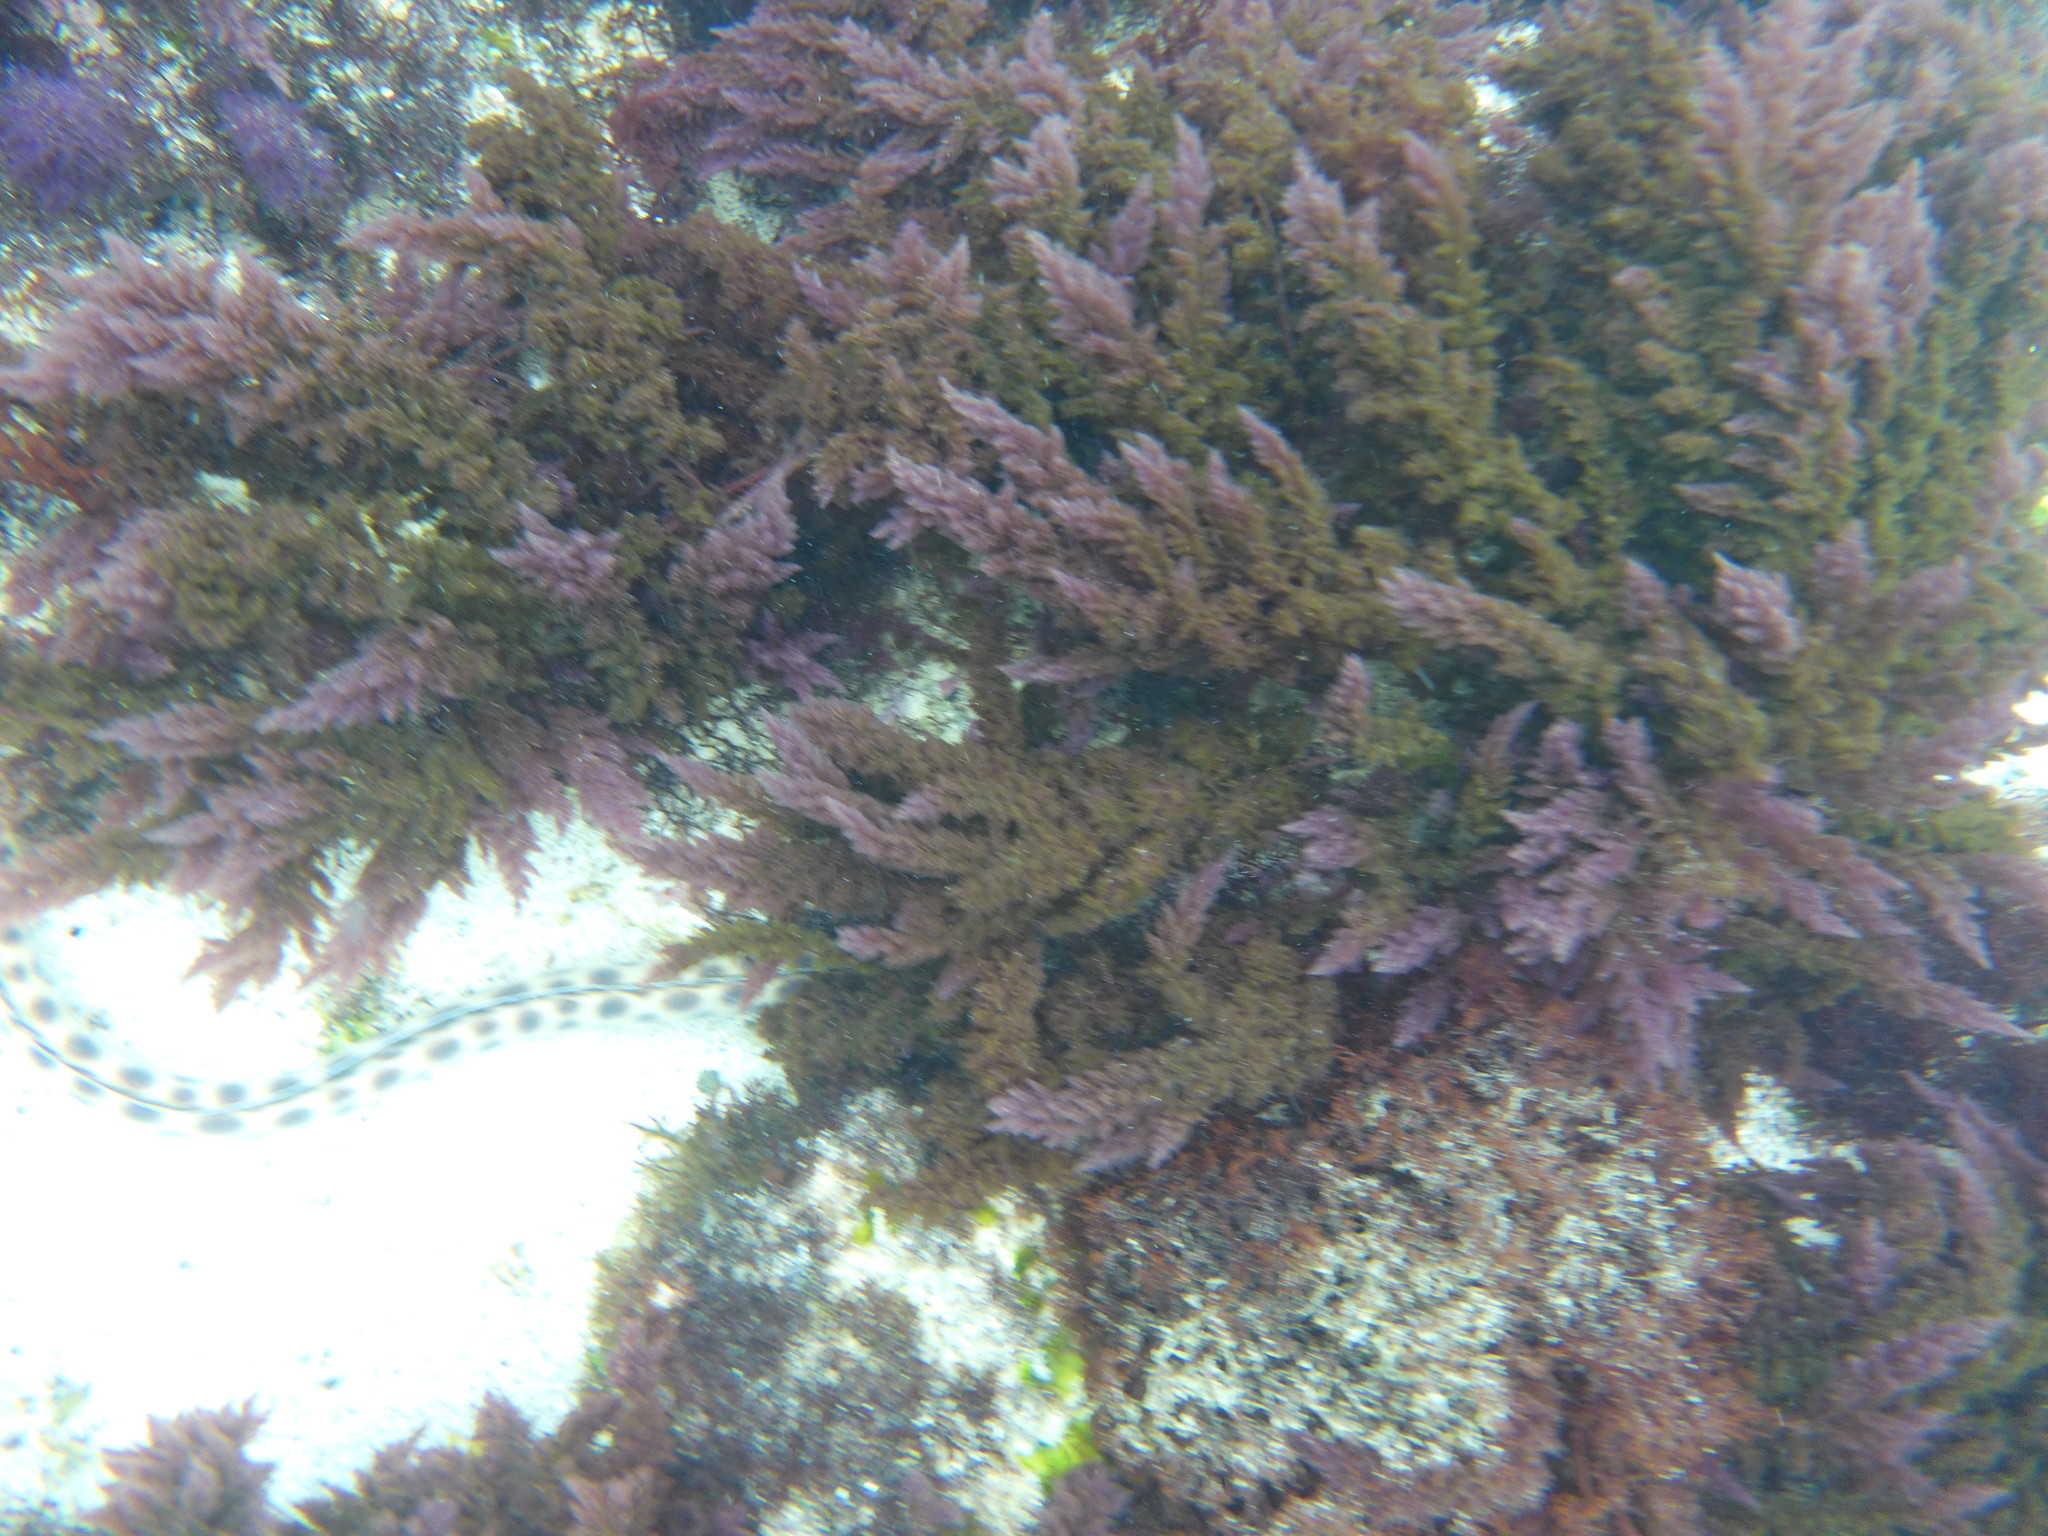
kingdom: Animalia
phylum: Chordata
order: Anguilliformes
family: Ophichthidae
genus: Myrichthys
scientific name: Myrichthys xysturus
